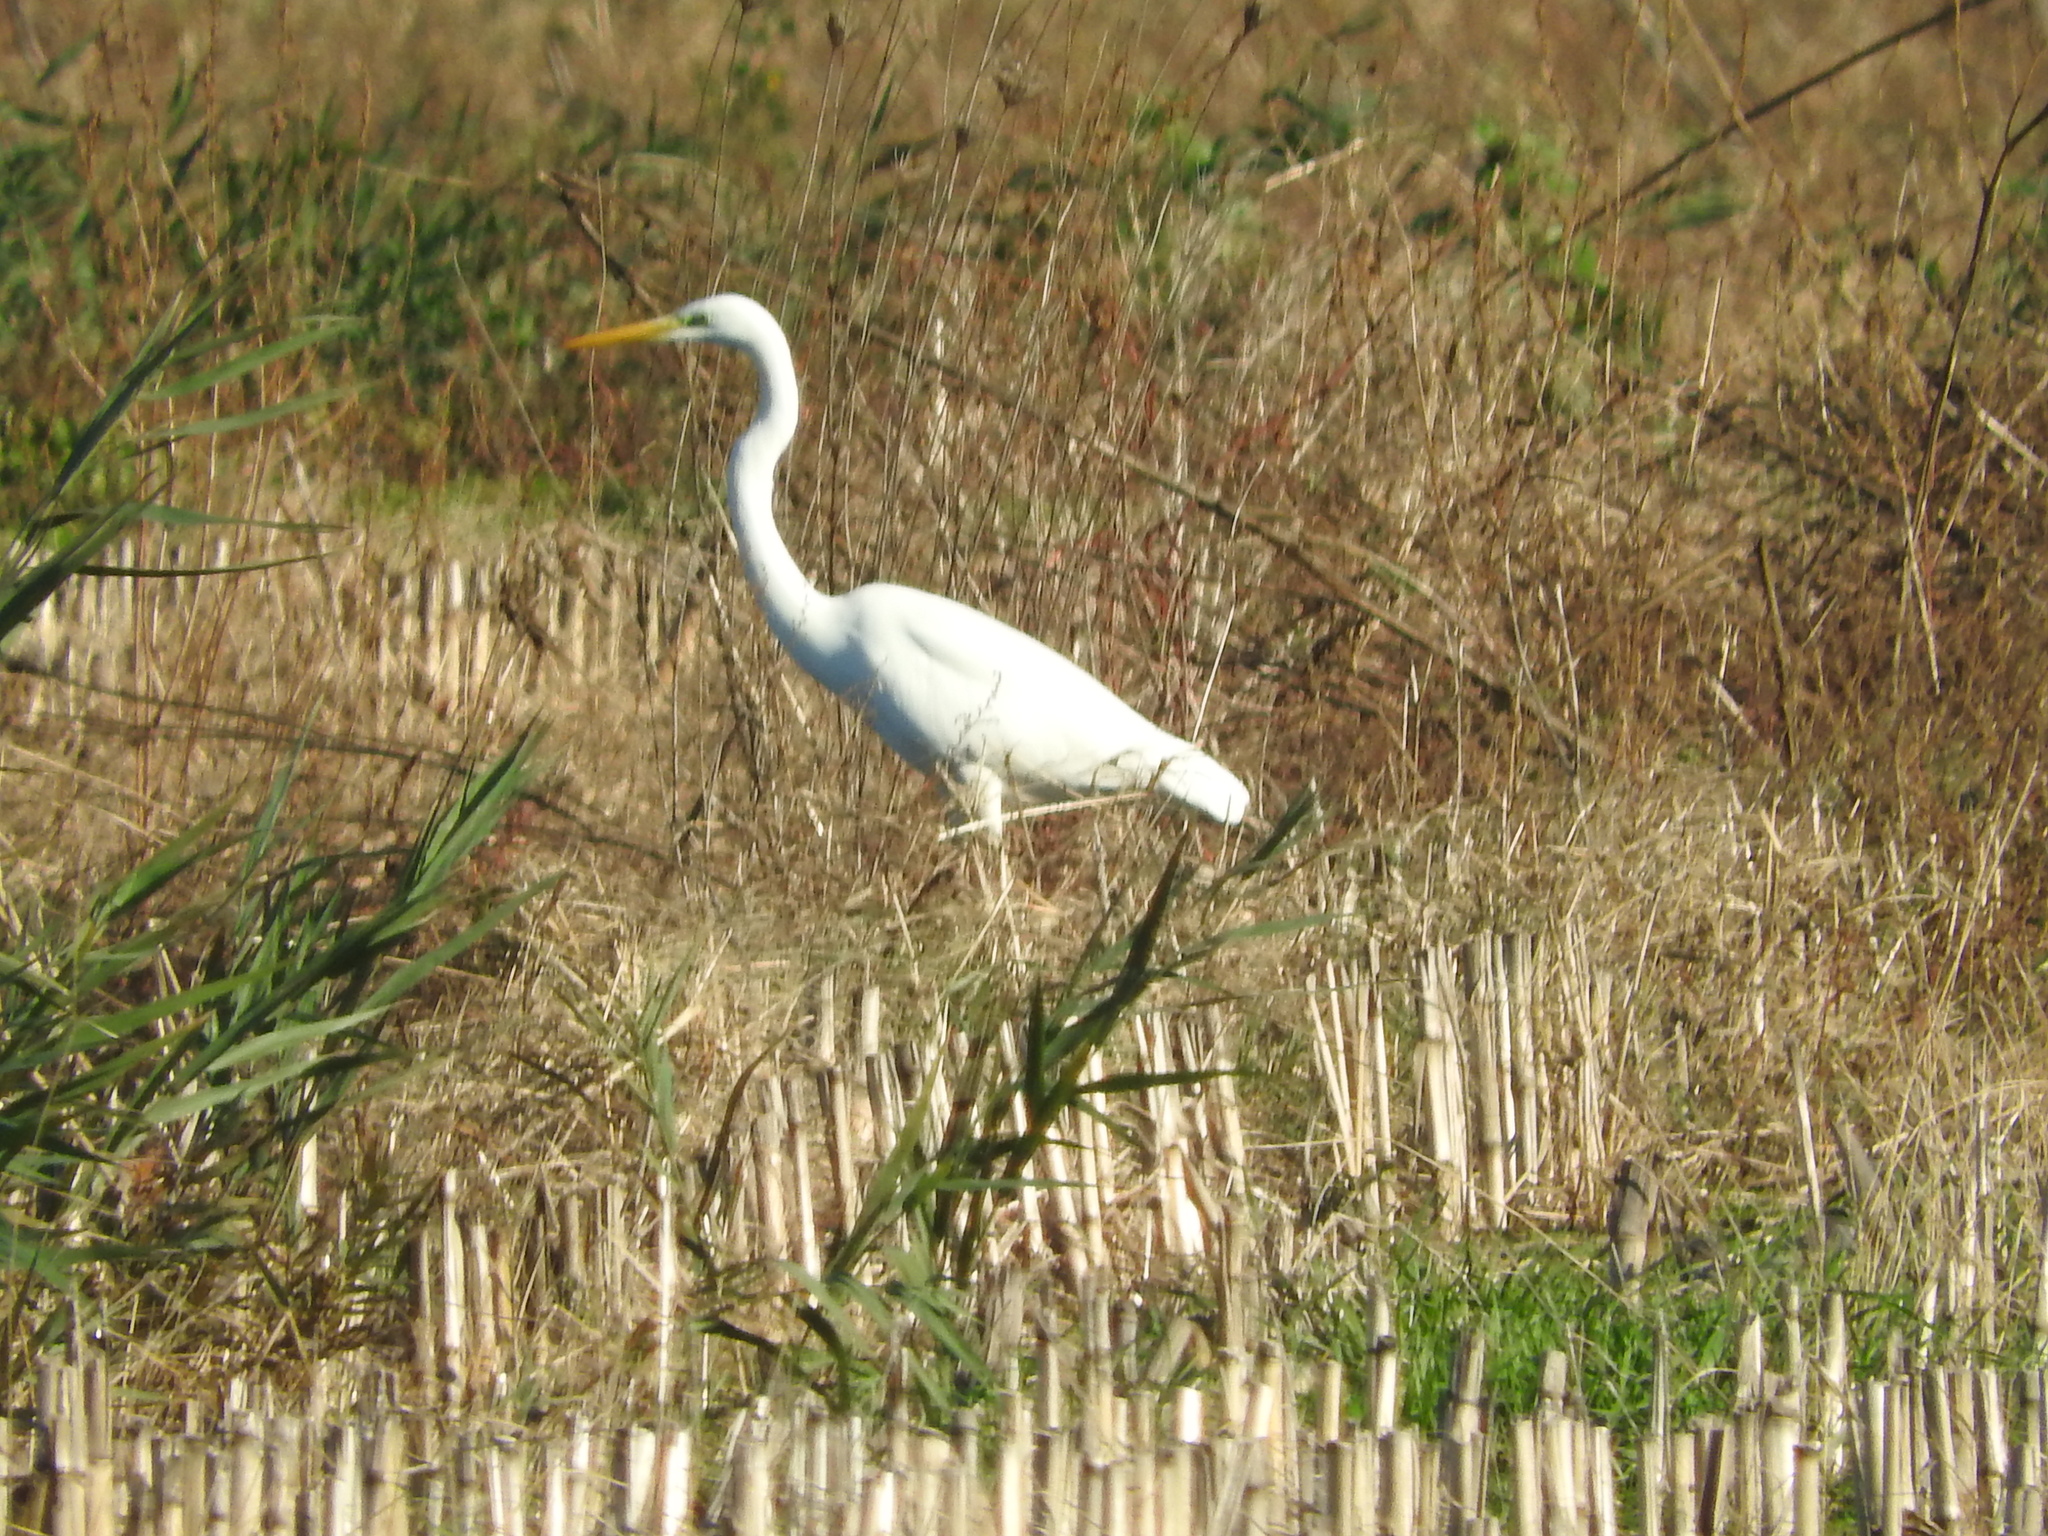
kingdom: Animalia
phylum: Chordata
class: Aves
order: Pelecaniformes
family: Ardeidae
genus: Ardea
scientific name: Ardea alba
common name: Great egret
